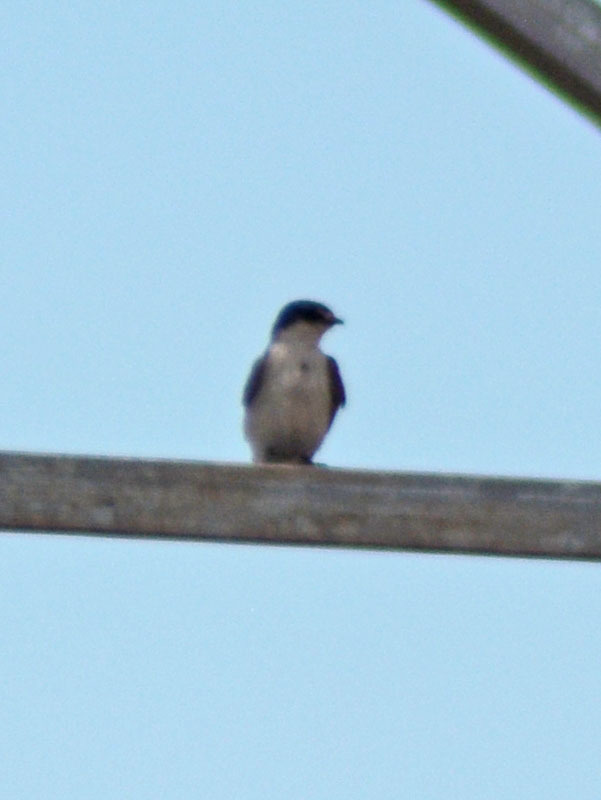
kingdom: Animalia
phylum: Chordata
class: Aves
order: Passeriformes
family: Hirundinidae
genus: Tachycineta
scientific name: Tachycineta albilinea
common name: Mangrove swallow
